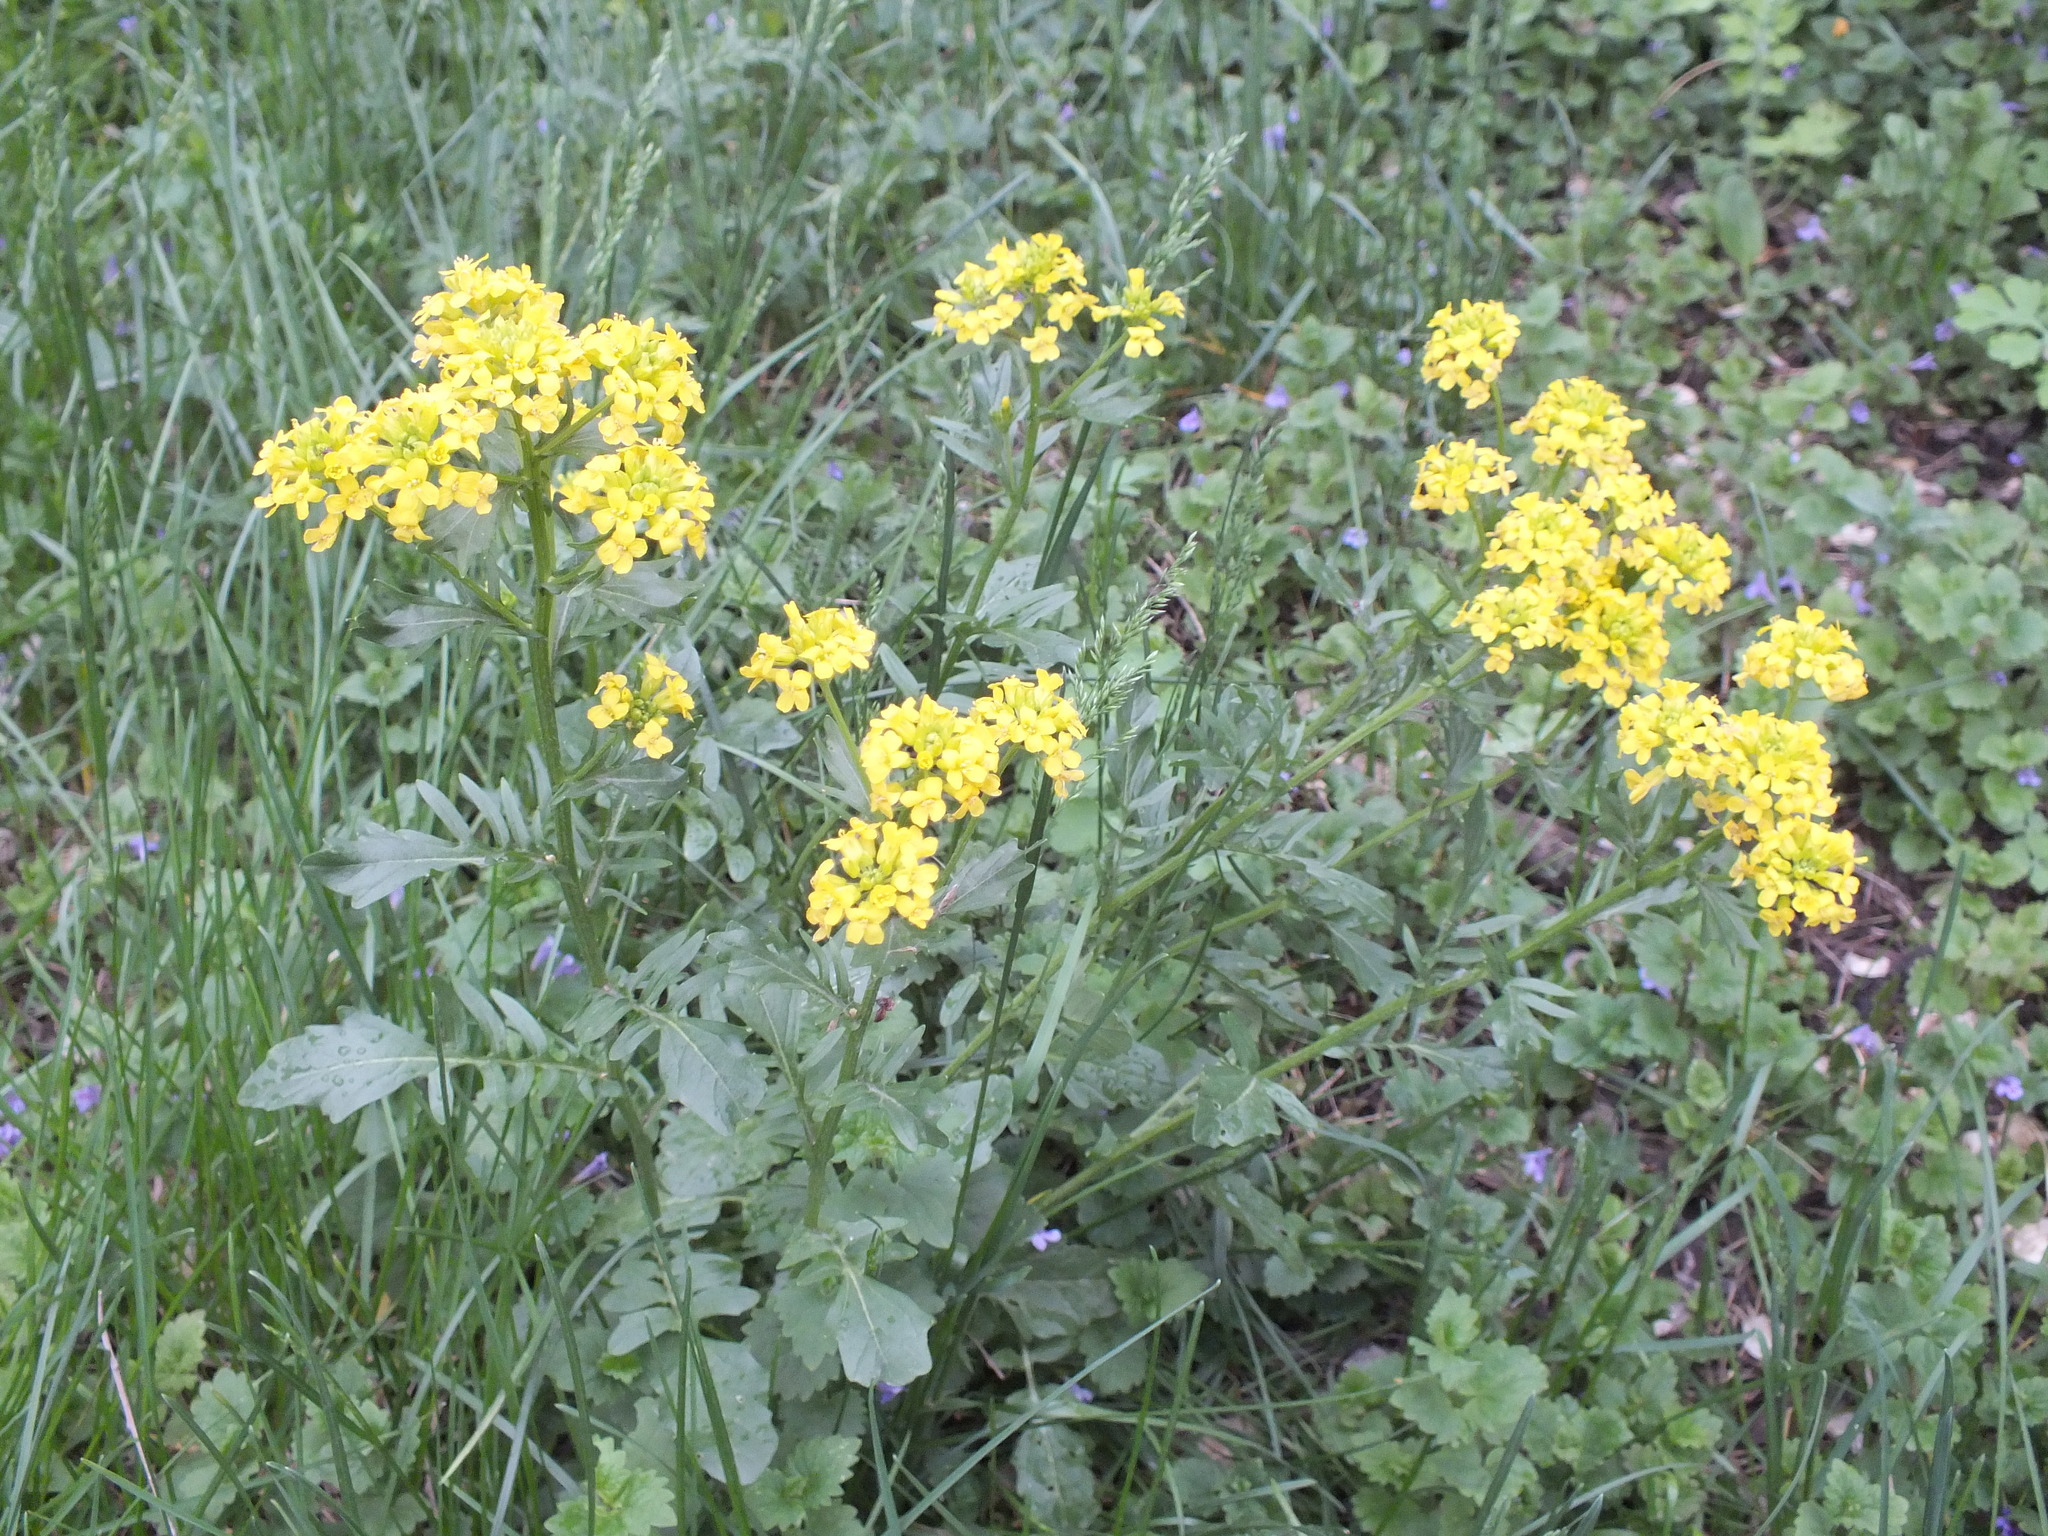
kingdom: Plantae
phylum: Tracheophyta
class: Magnoliopsida
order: Brassicales
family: Brassicaceae
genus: Barbarea
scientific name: Barbarea vulgaris
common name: Cressy-greens
